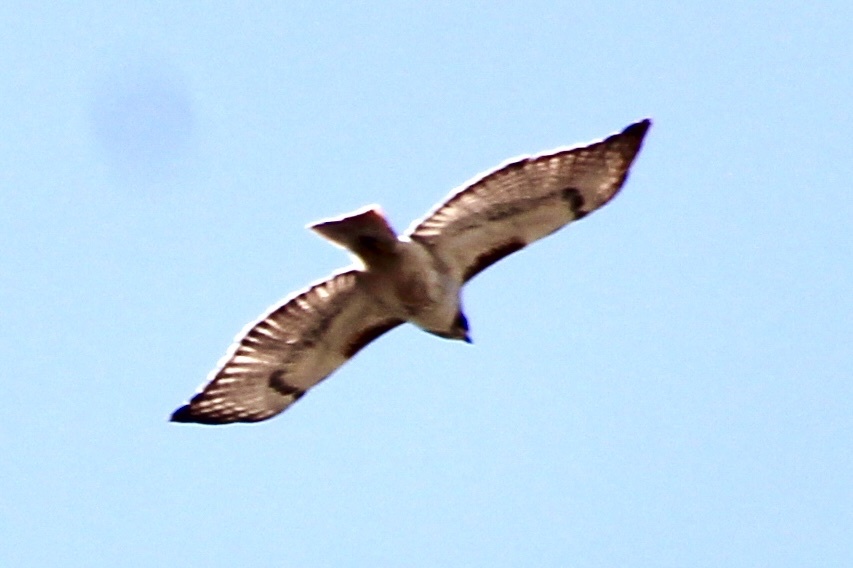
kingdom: Animalia
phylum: Chordata
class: Aves
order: Accipitriformes
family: Accipitridae
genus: Buteo
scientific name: Buteo jamaicensis
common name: Red-tailed hawk
